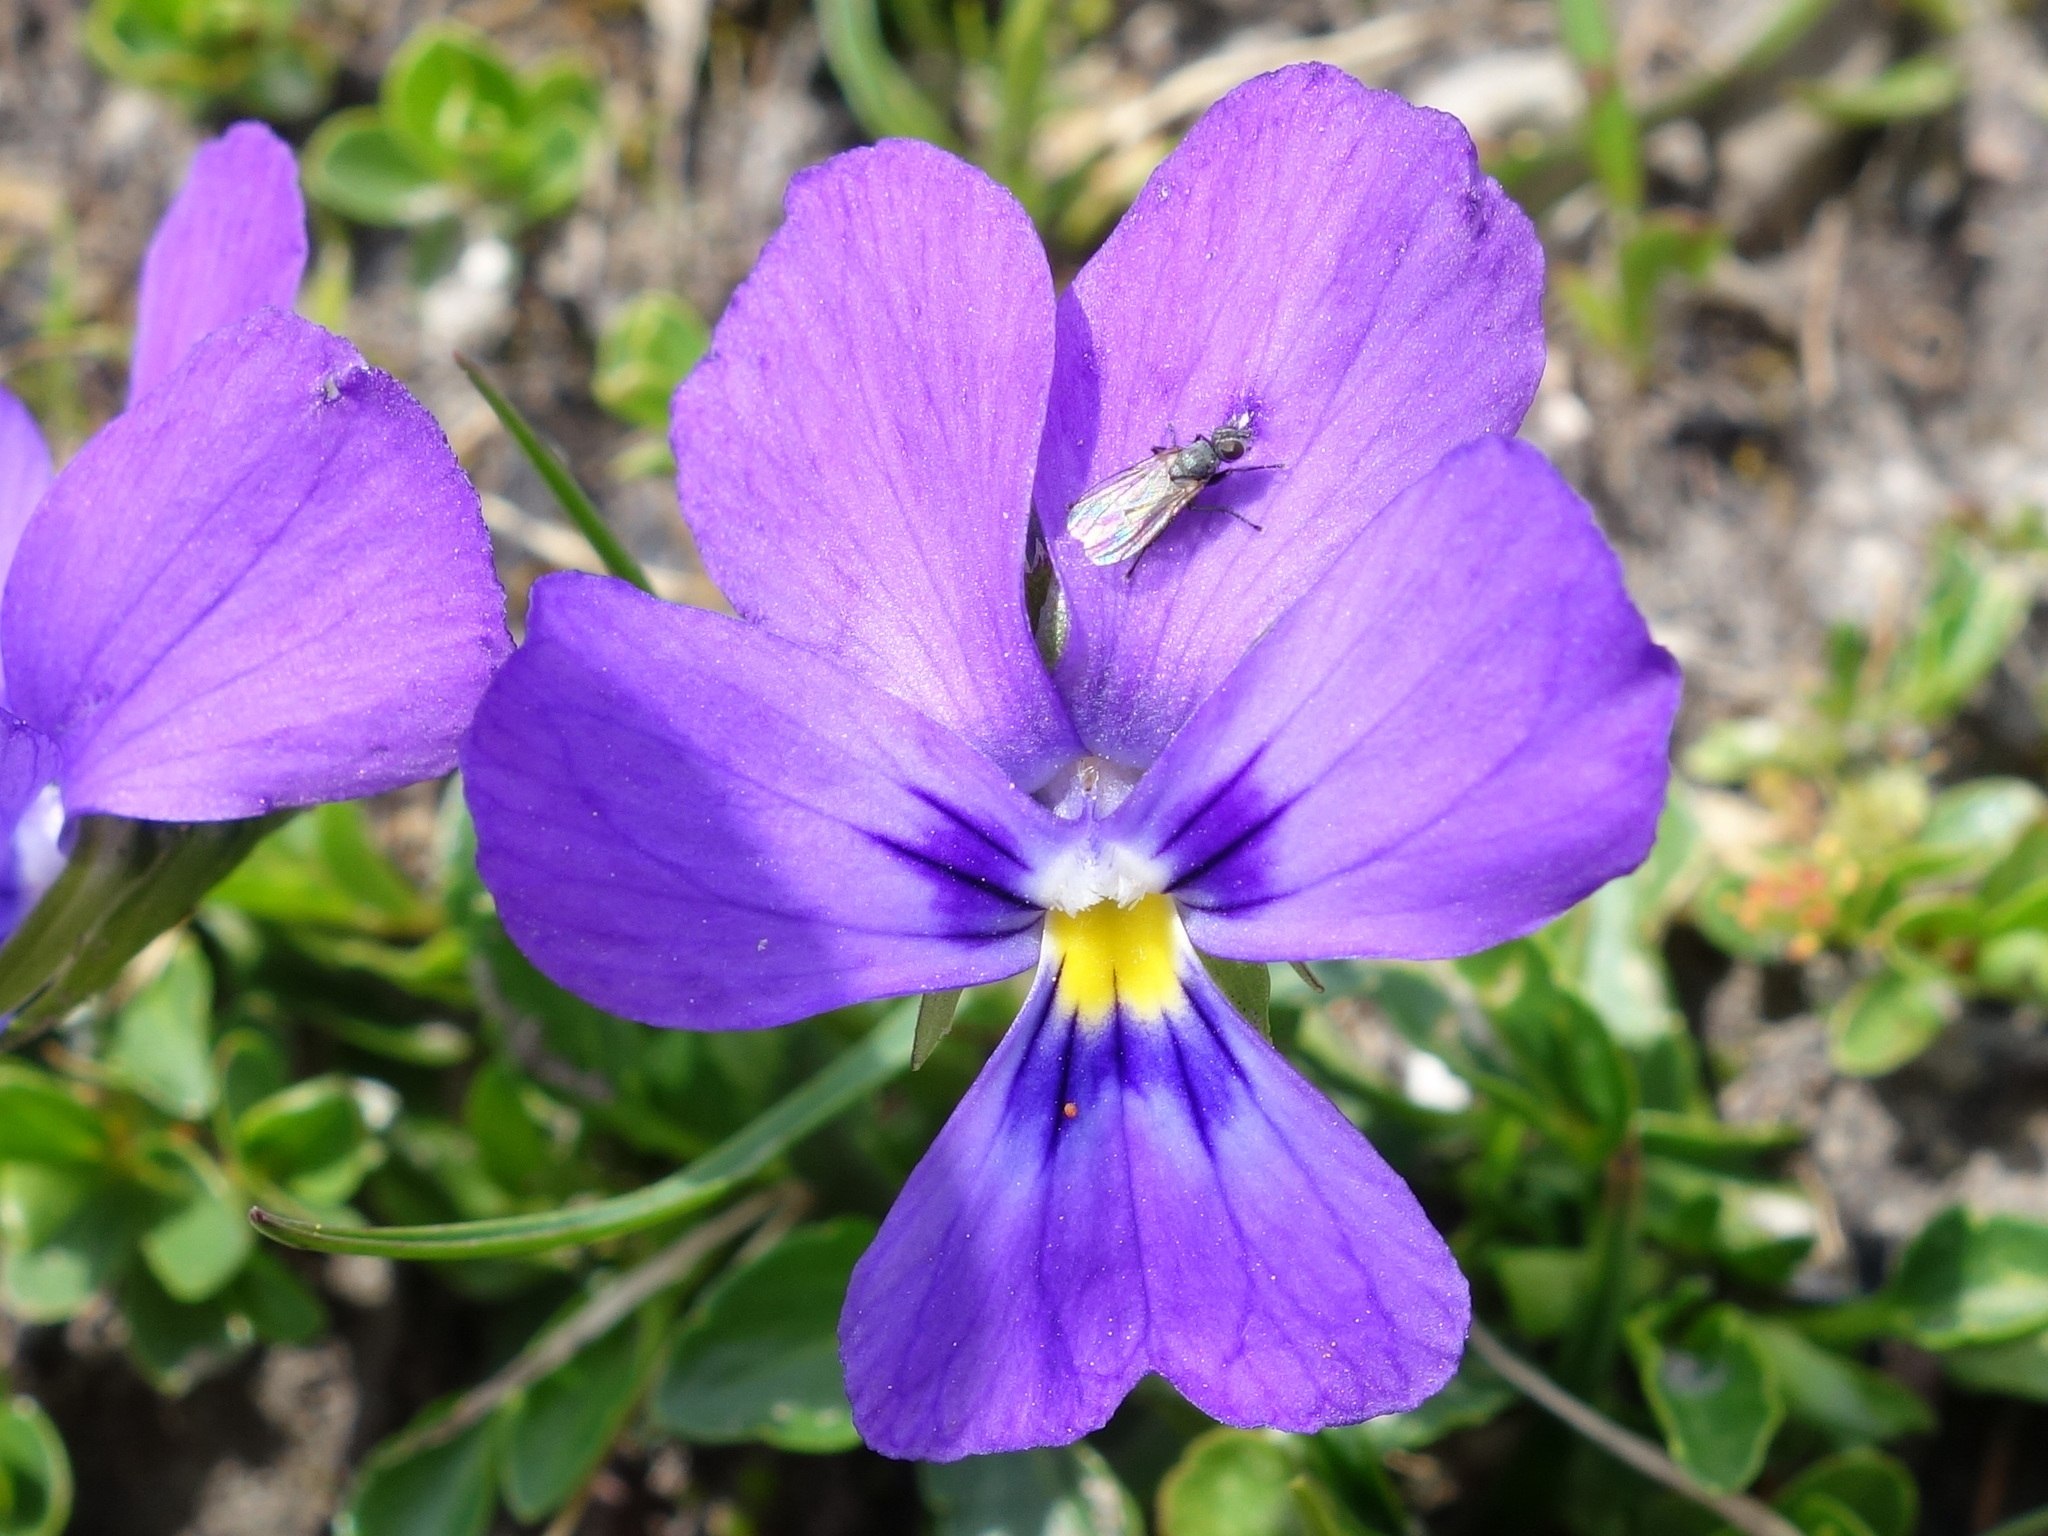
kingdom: Plantae
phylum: Tracheophyta
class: Magnoliopsida
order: Malpighiales
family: Violaceae
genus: Viola
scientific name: Viola calcarata
